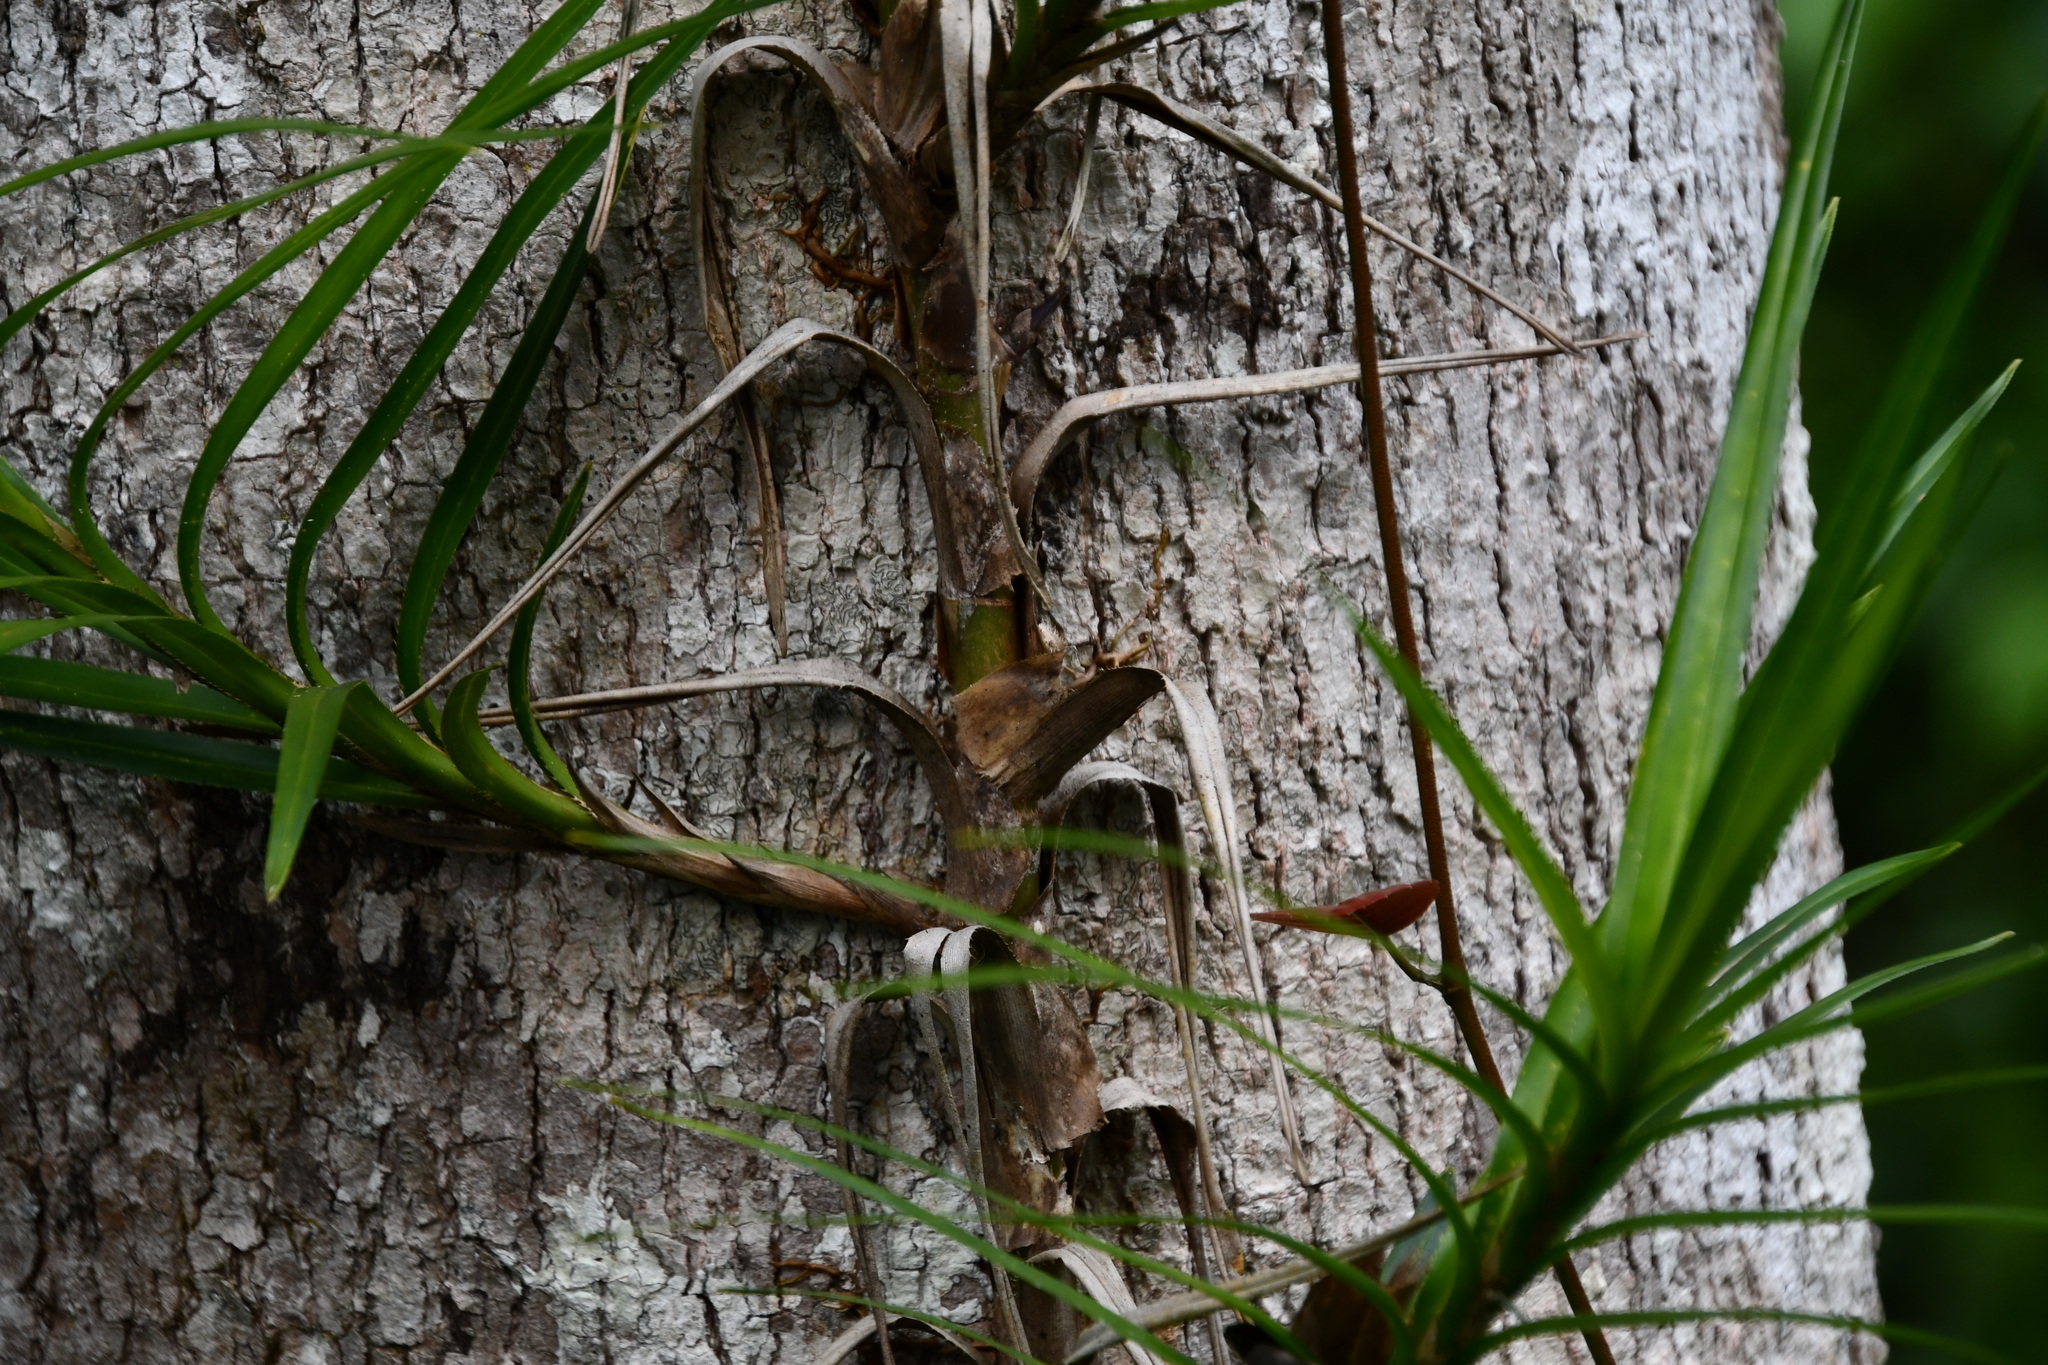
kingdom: Plantae
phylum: Tracheophyta
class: Liliopsida
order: Pandanales
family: Pandanaceae
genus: Freycinetia
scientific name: Freycinetia excelsa
